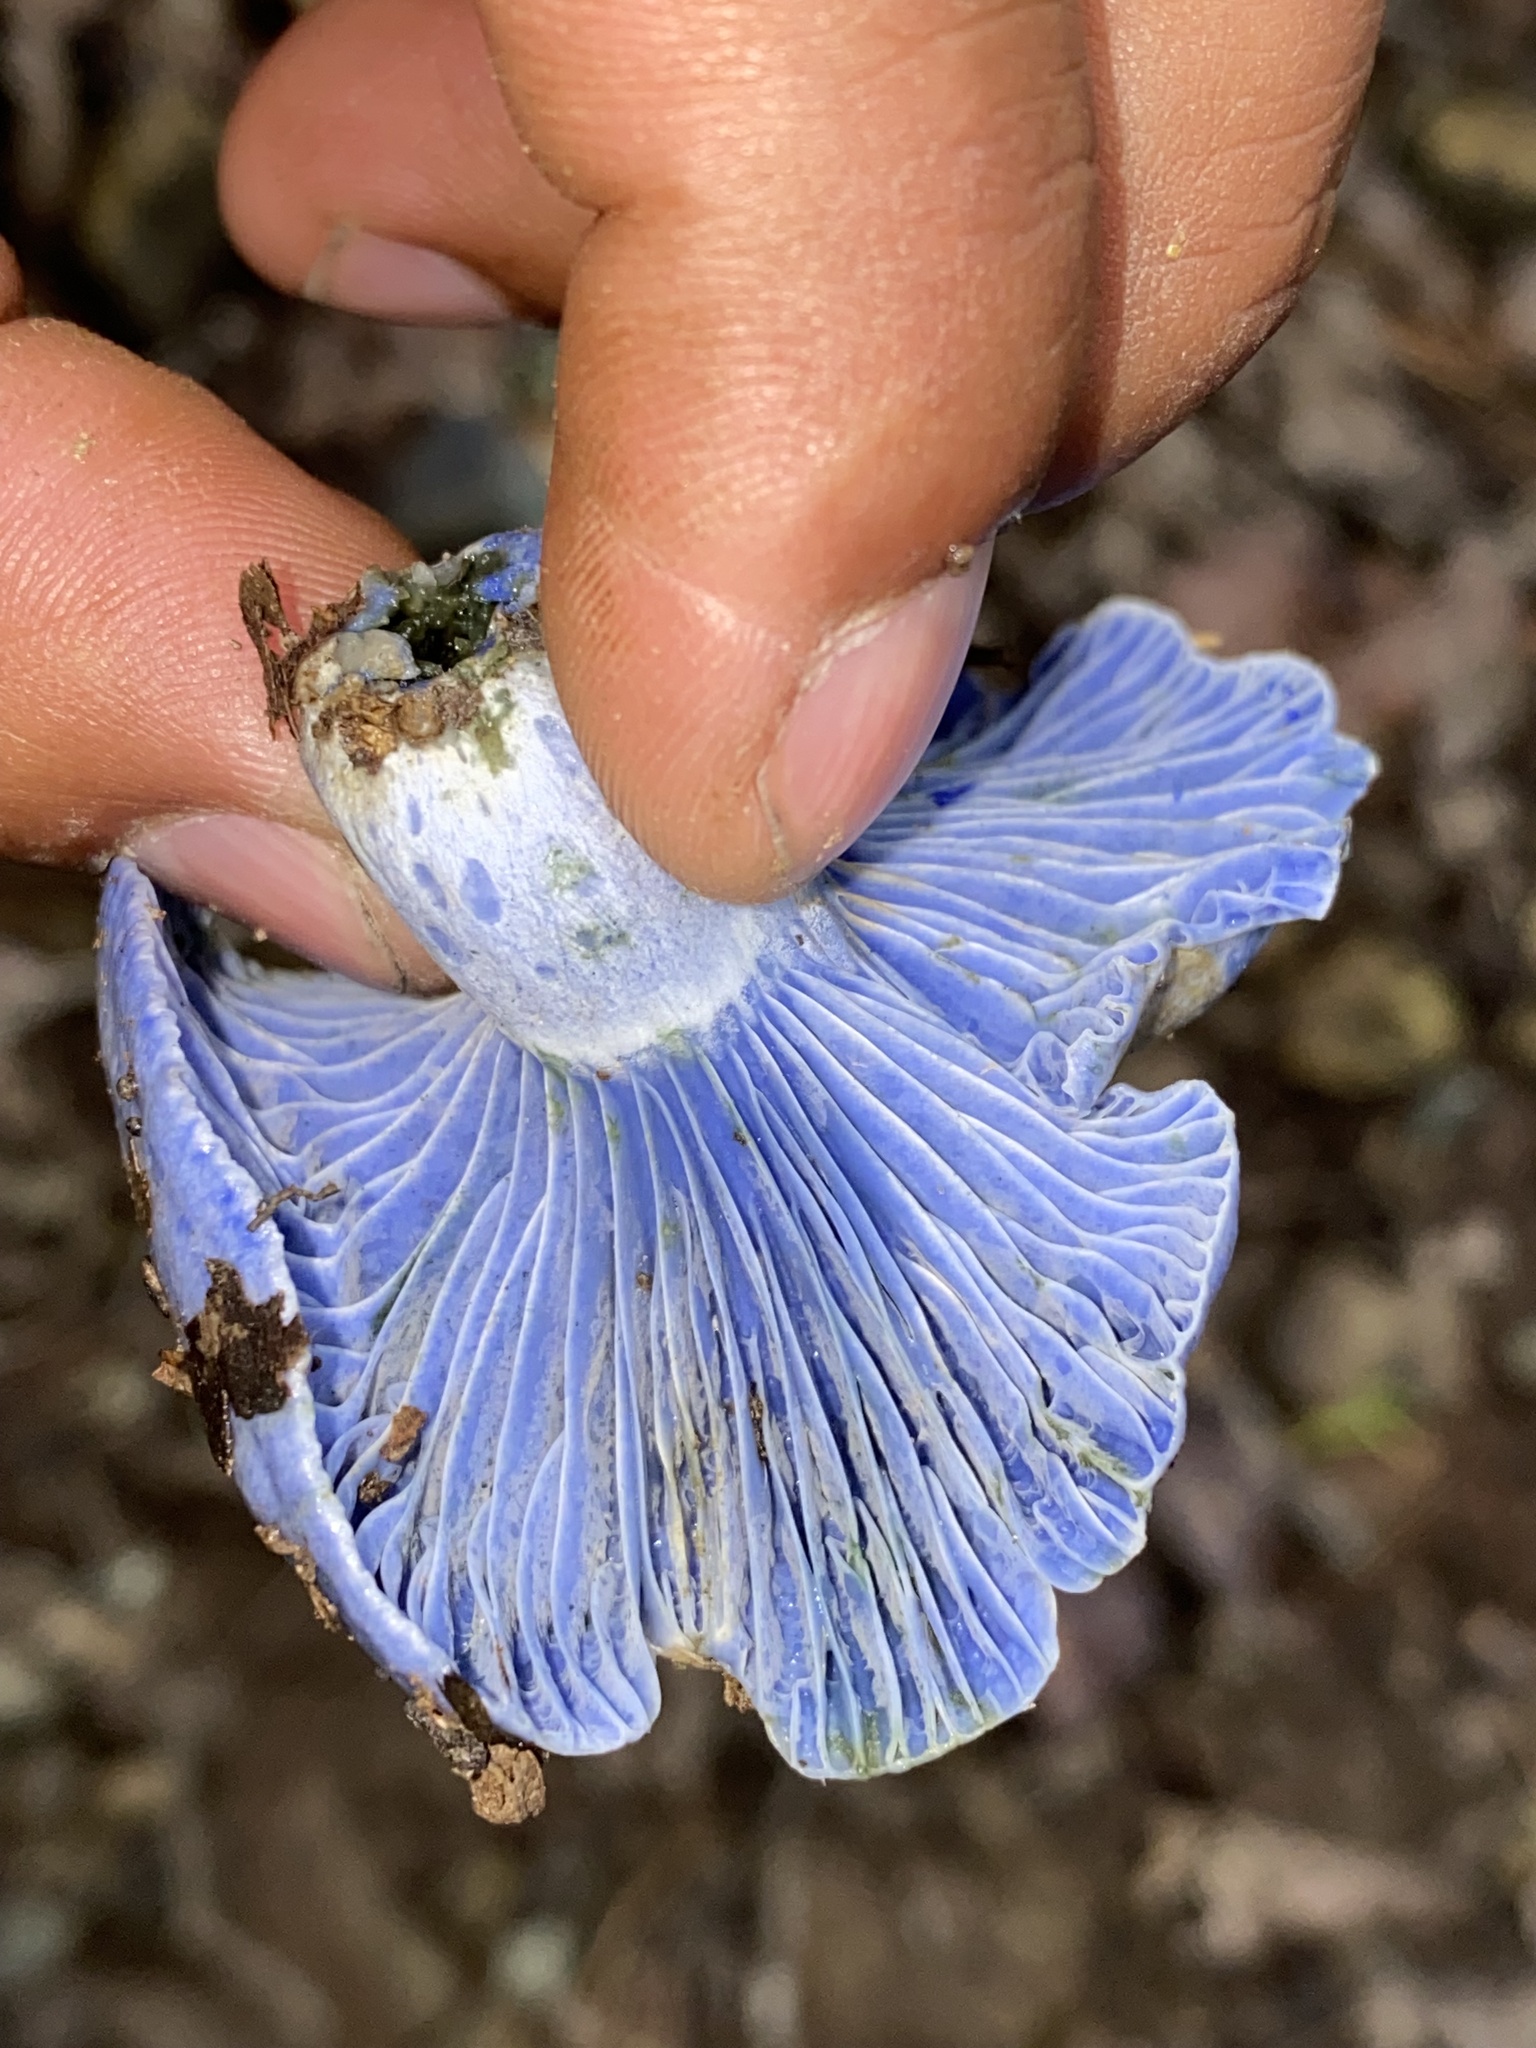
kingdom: Fungi
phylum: Basidiomycota
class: Agaricomycetes
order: Russulales
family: Russulaceae
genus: Lactarius
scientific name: Lactarius indigo
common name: Indigo milk cap
